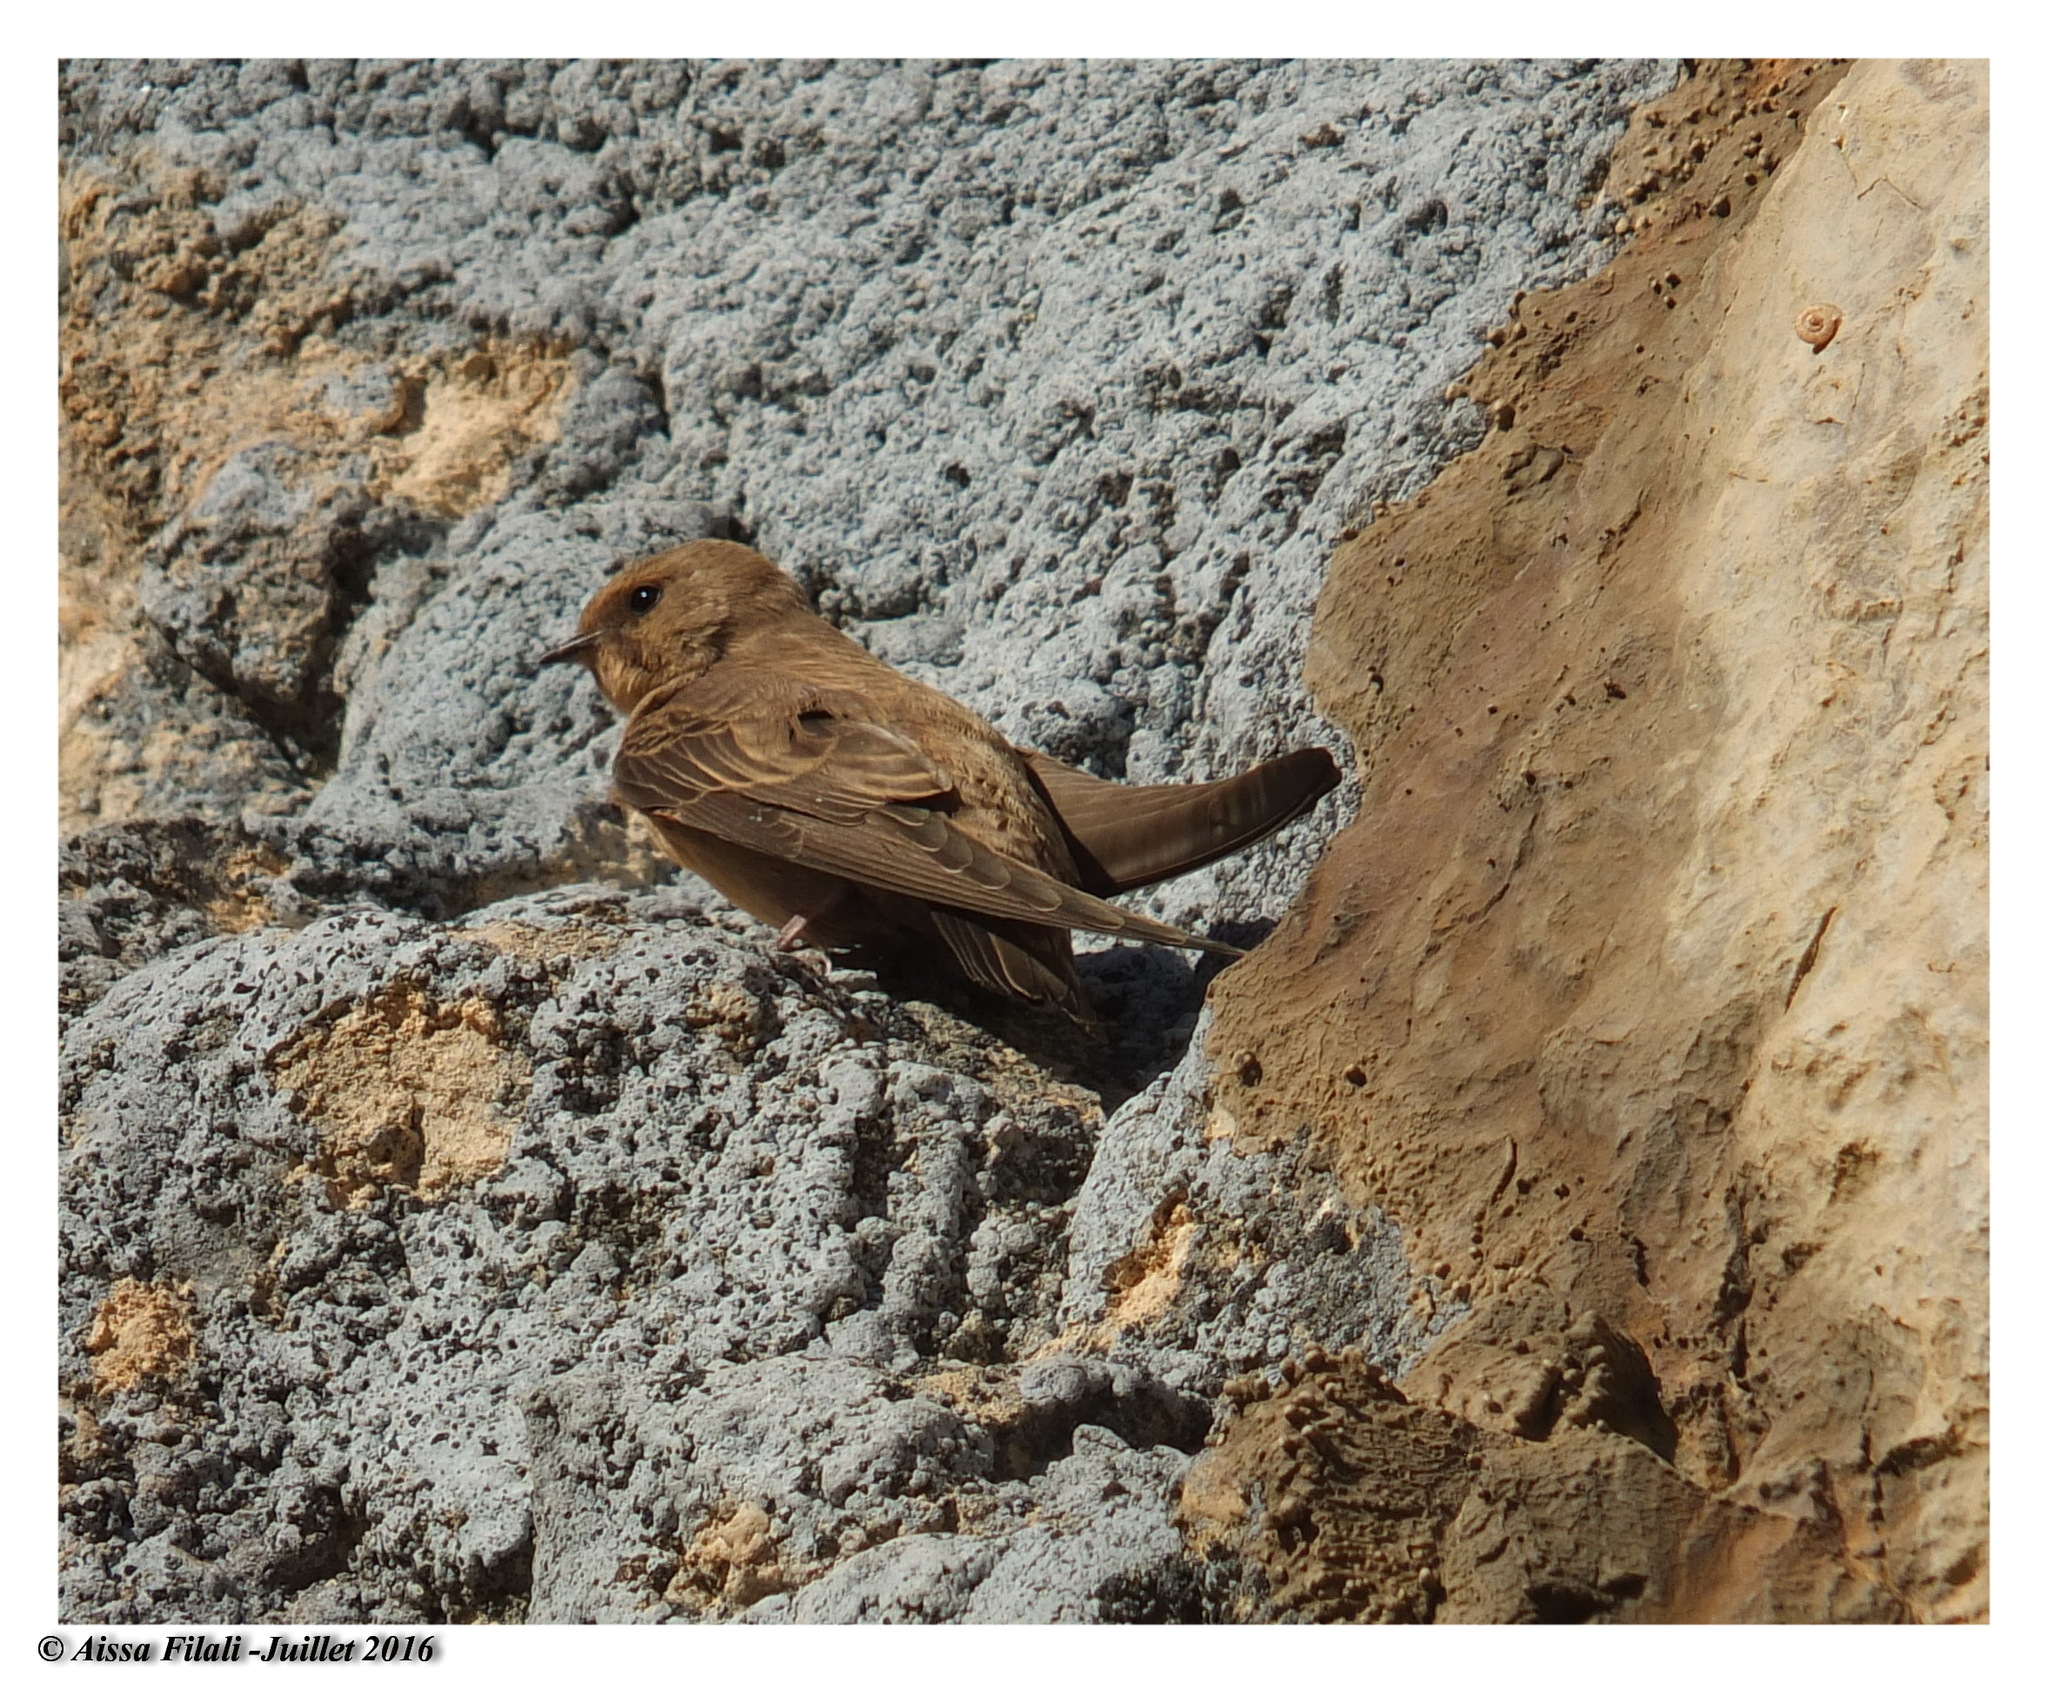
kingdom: Animalia
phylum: Chordata
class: Aves
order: Passeriformes
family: Hirundinidae
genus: Ptyonoprogne
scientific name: Ptyonoprogne rupestris
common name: Eurasian crag martin
